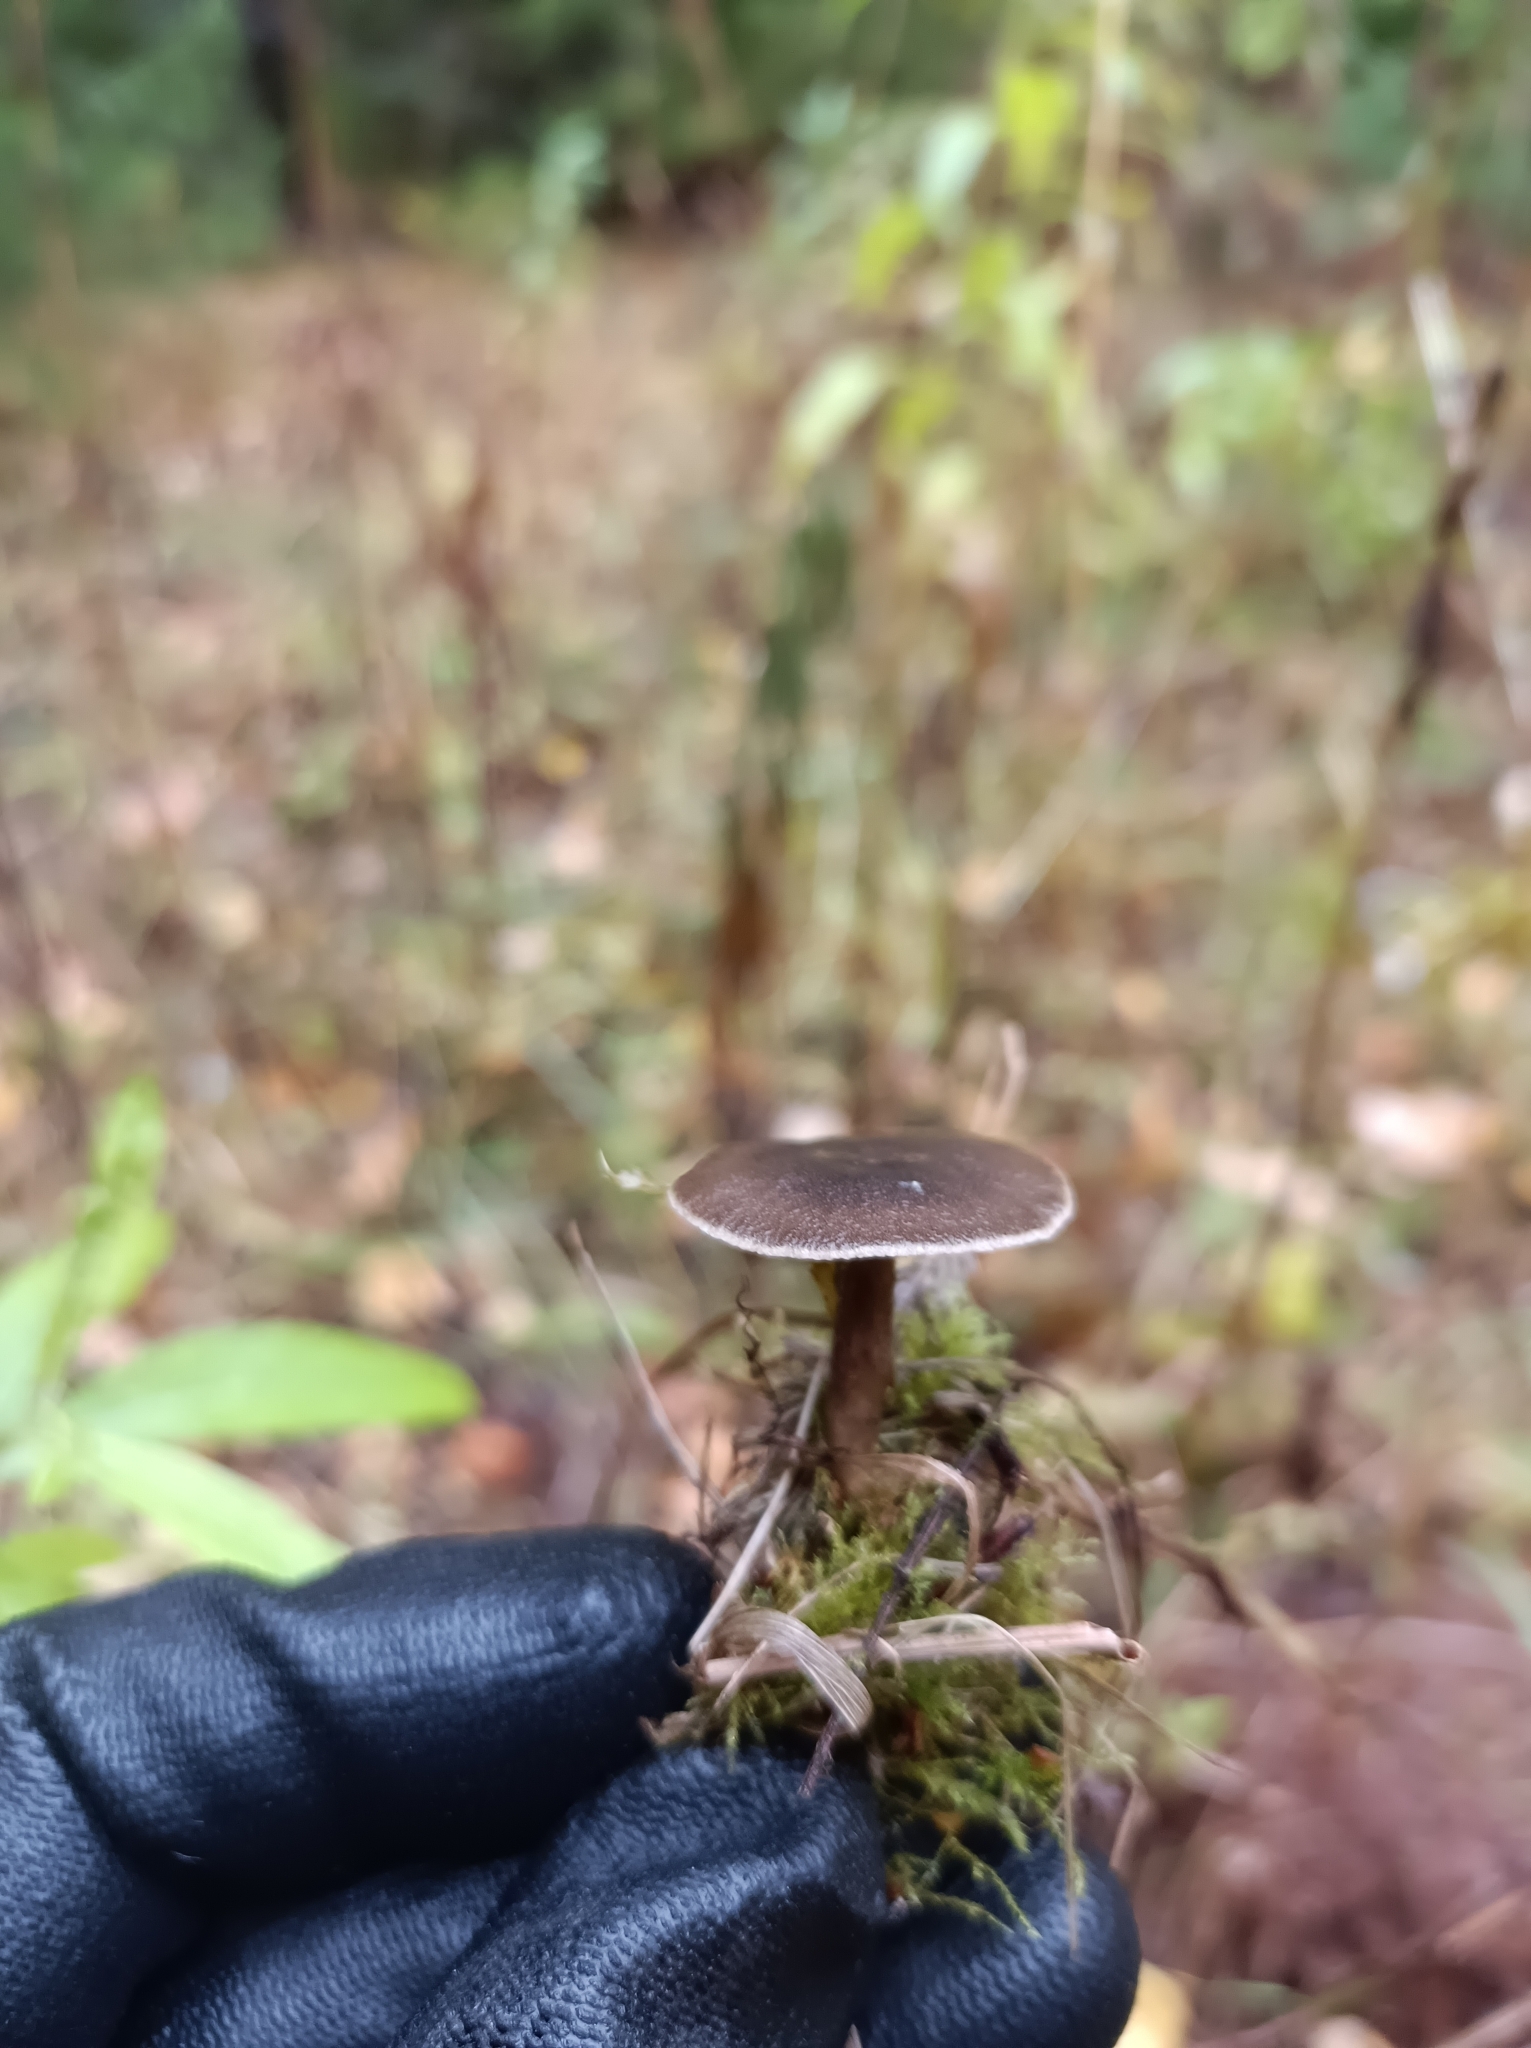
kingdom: Fungi
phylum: Basidiomycota
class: Agaricomycetes
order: Polyporales
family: Polyporaceae
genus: Lentinus
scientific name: Lentinus brumalis
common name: Winter polypore
